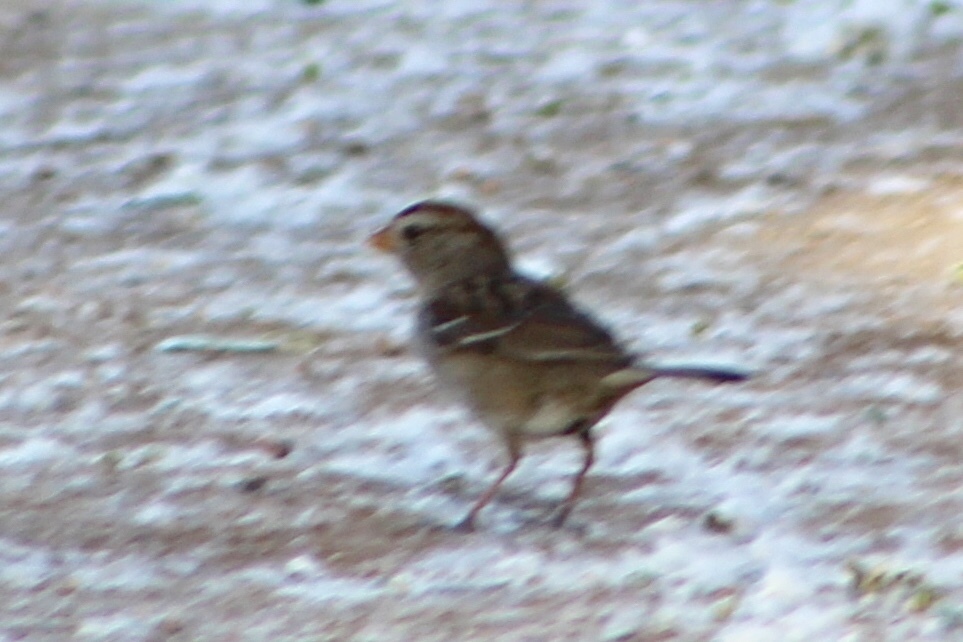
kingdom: Animalia
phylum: Chordata
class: Aves
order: Passeriformes
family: Passerellidae
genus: Zonotrichia
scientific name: Zonotrichia leucophrys
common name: White-crowned sparrow
